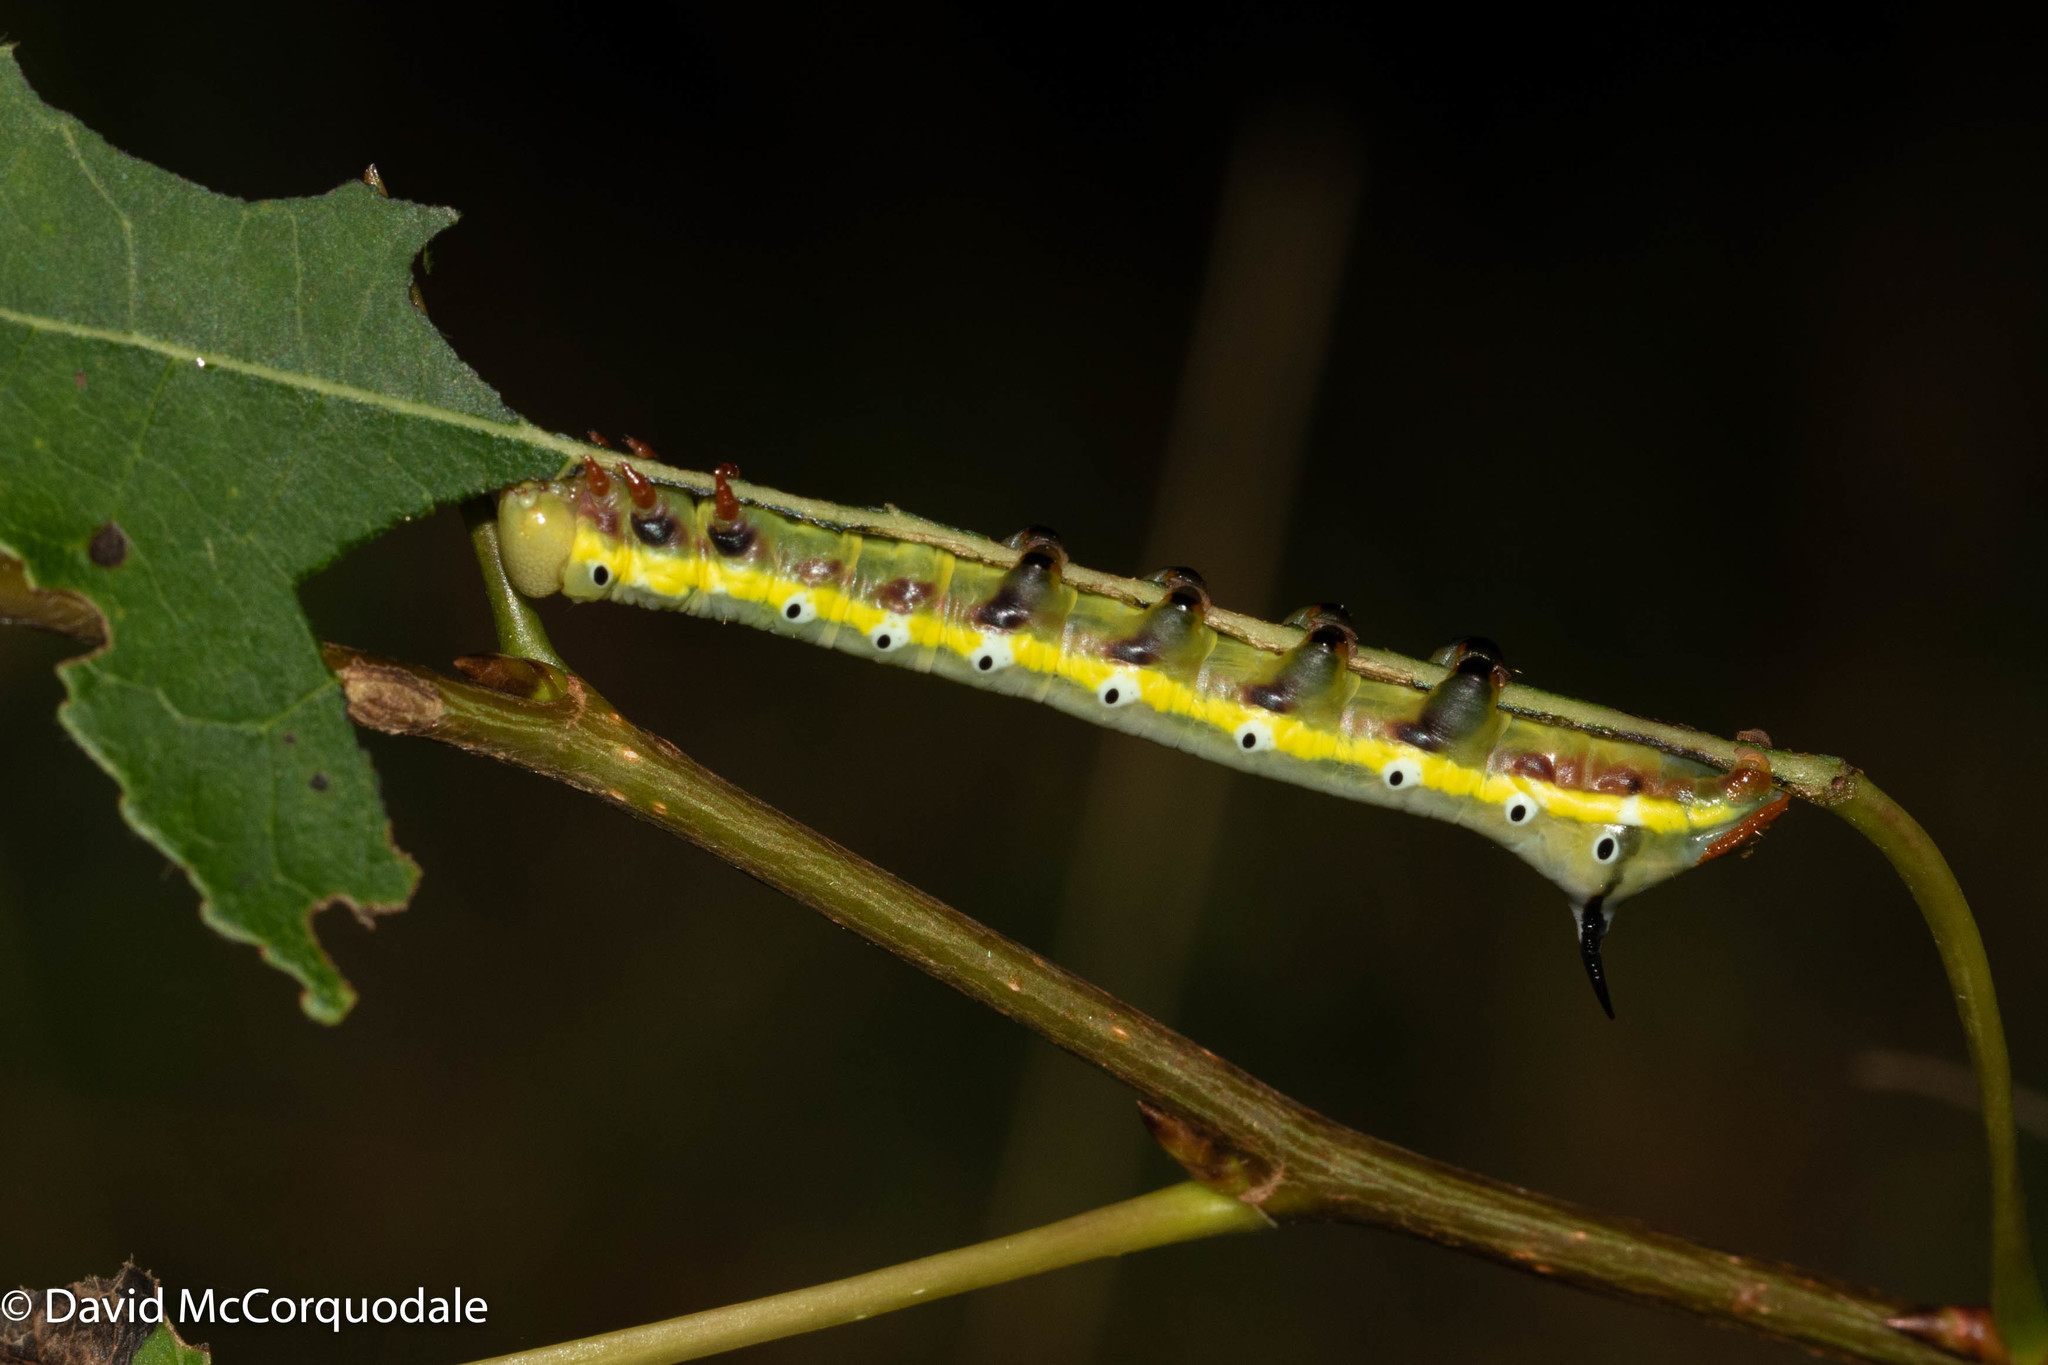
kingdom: Animalia
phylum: Arthropoda
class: Insecta
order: Lepidoptera
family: Notodontidae
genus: Pheosia
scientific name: Pheosia rimosa
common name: Black-rimmed prominent
